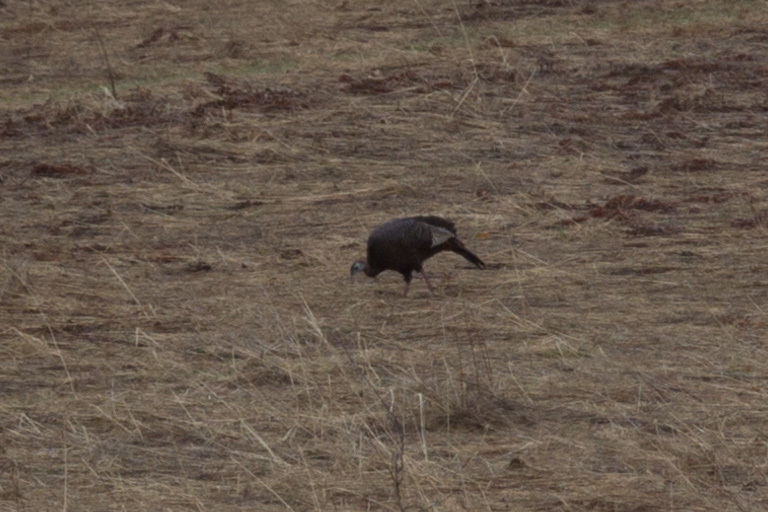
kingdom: Animalia
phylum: Chordata
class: Aves
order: Galliformes
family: Phasianidae
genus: Meleagris
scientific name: Meleagris gallopavo
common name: Wild turkey
